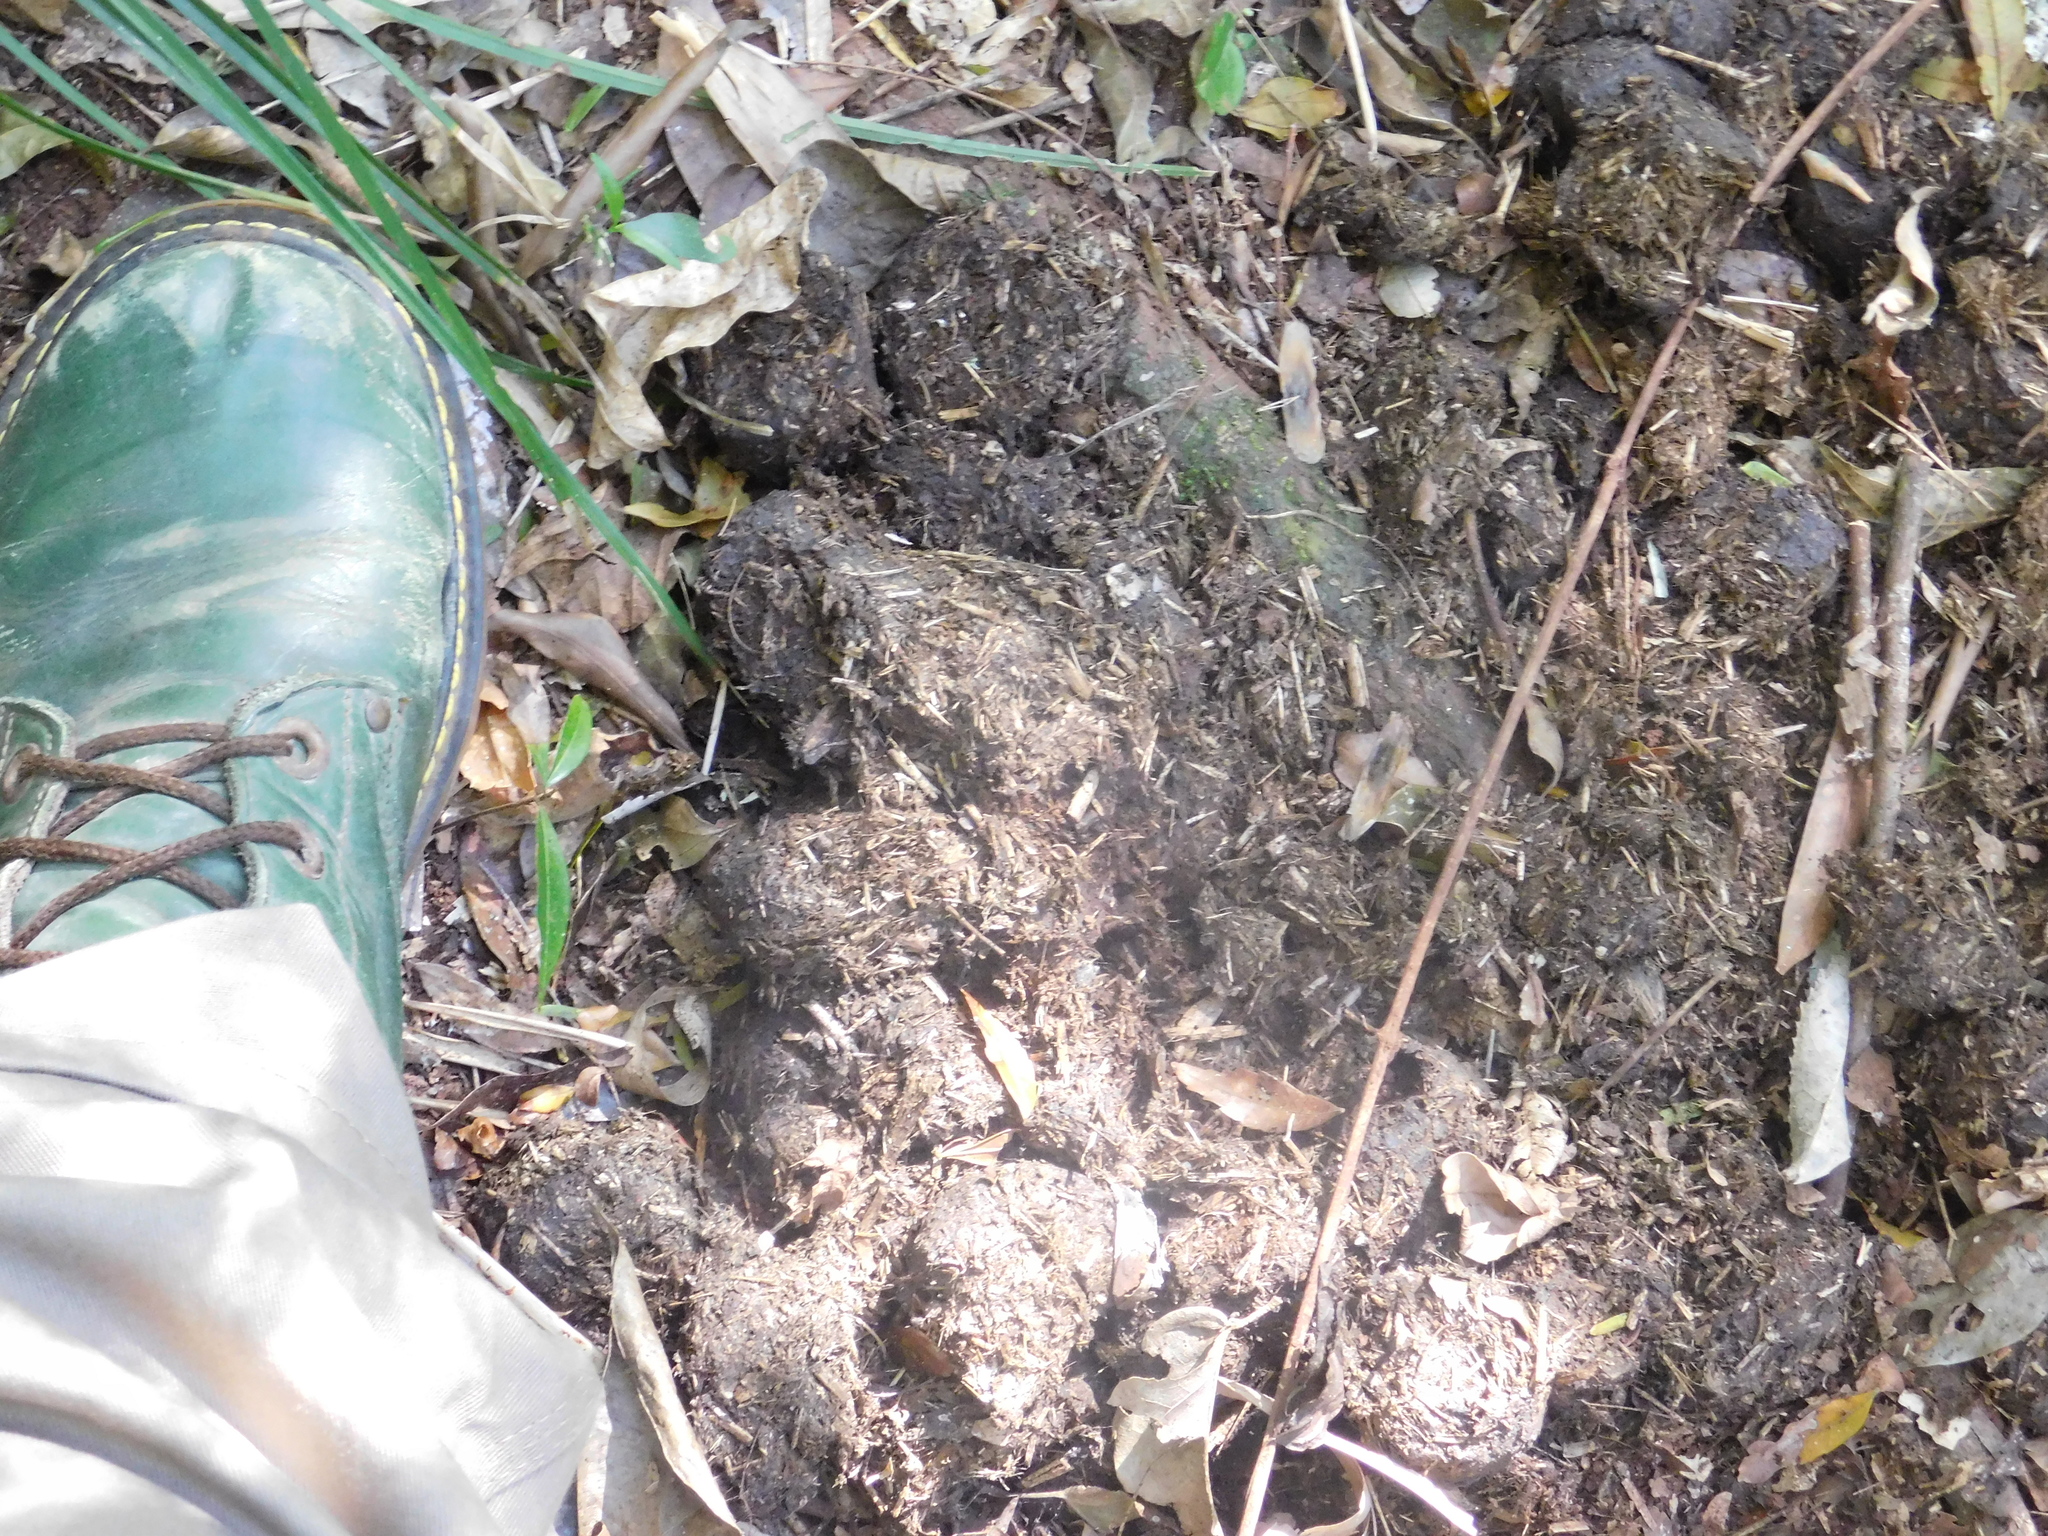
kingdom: Animalia
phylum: Chordata
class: Mammalia
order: Perissodactyla
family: Tapiridae
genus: Tapirus
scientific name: Tapirus terrestris
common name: Brazilian tapir
